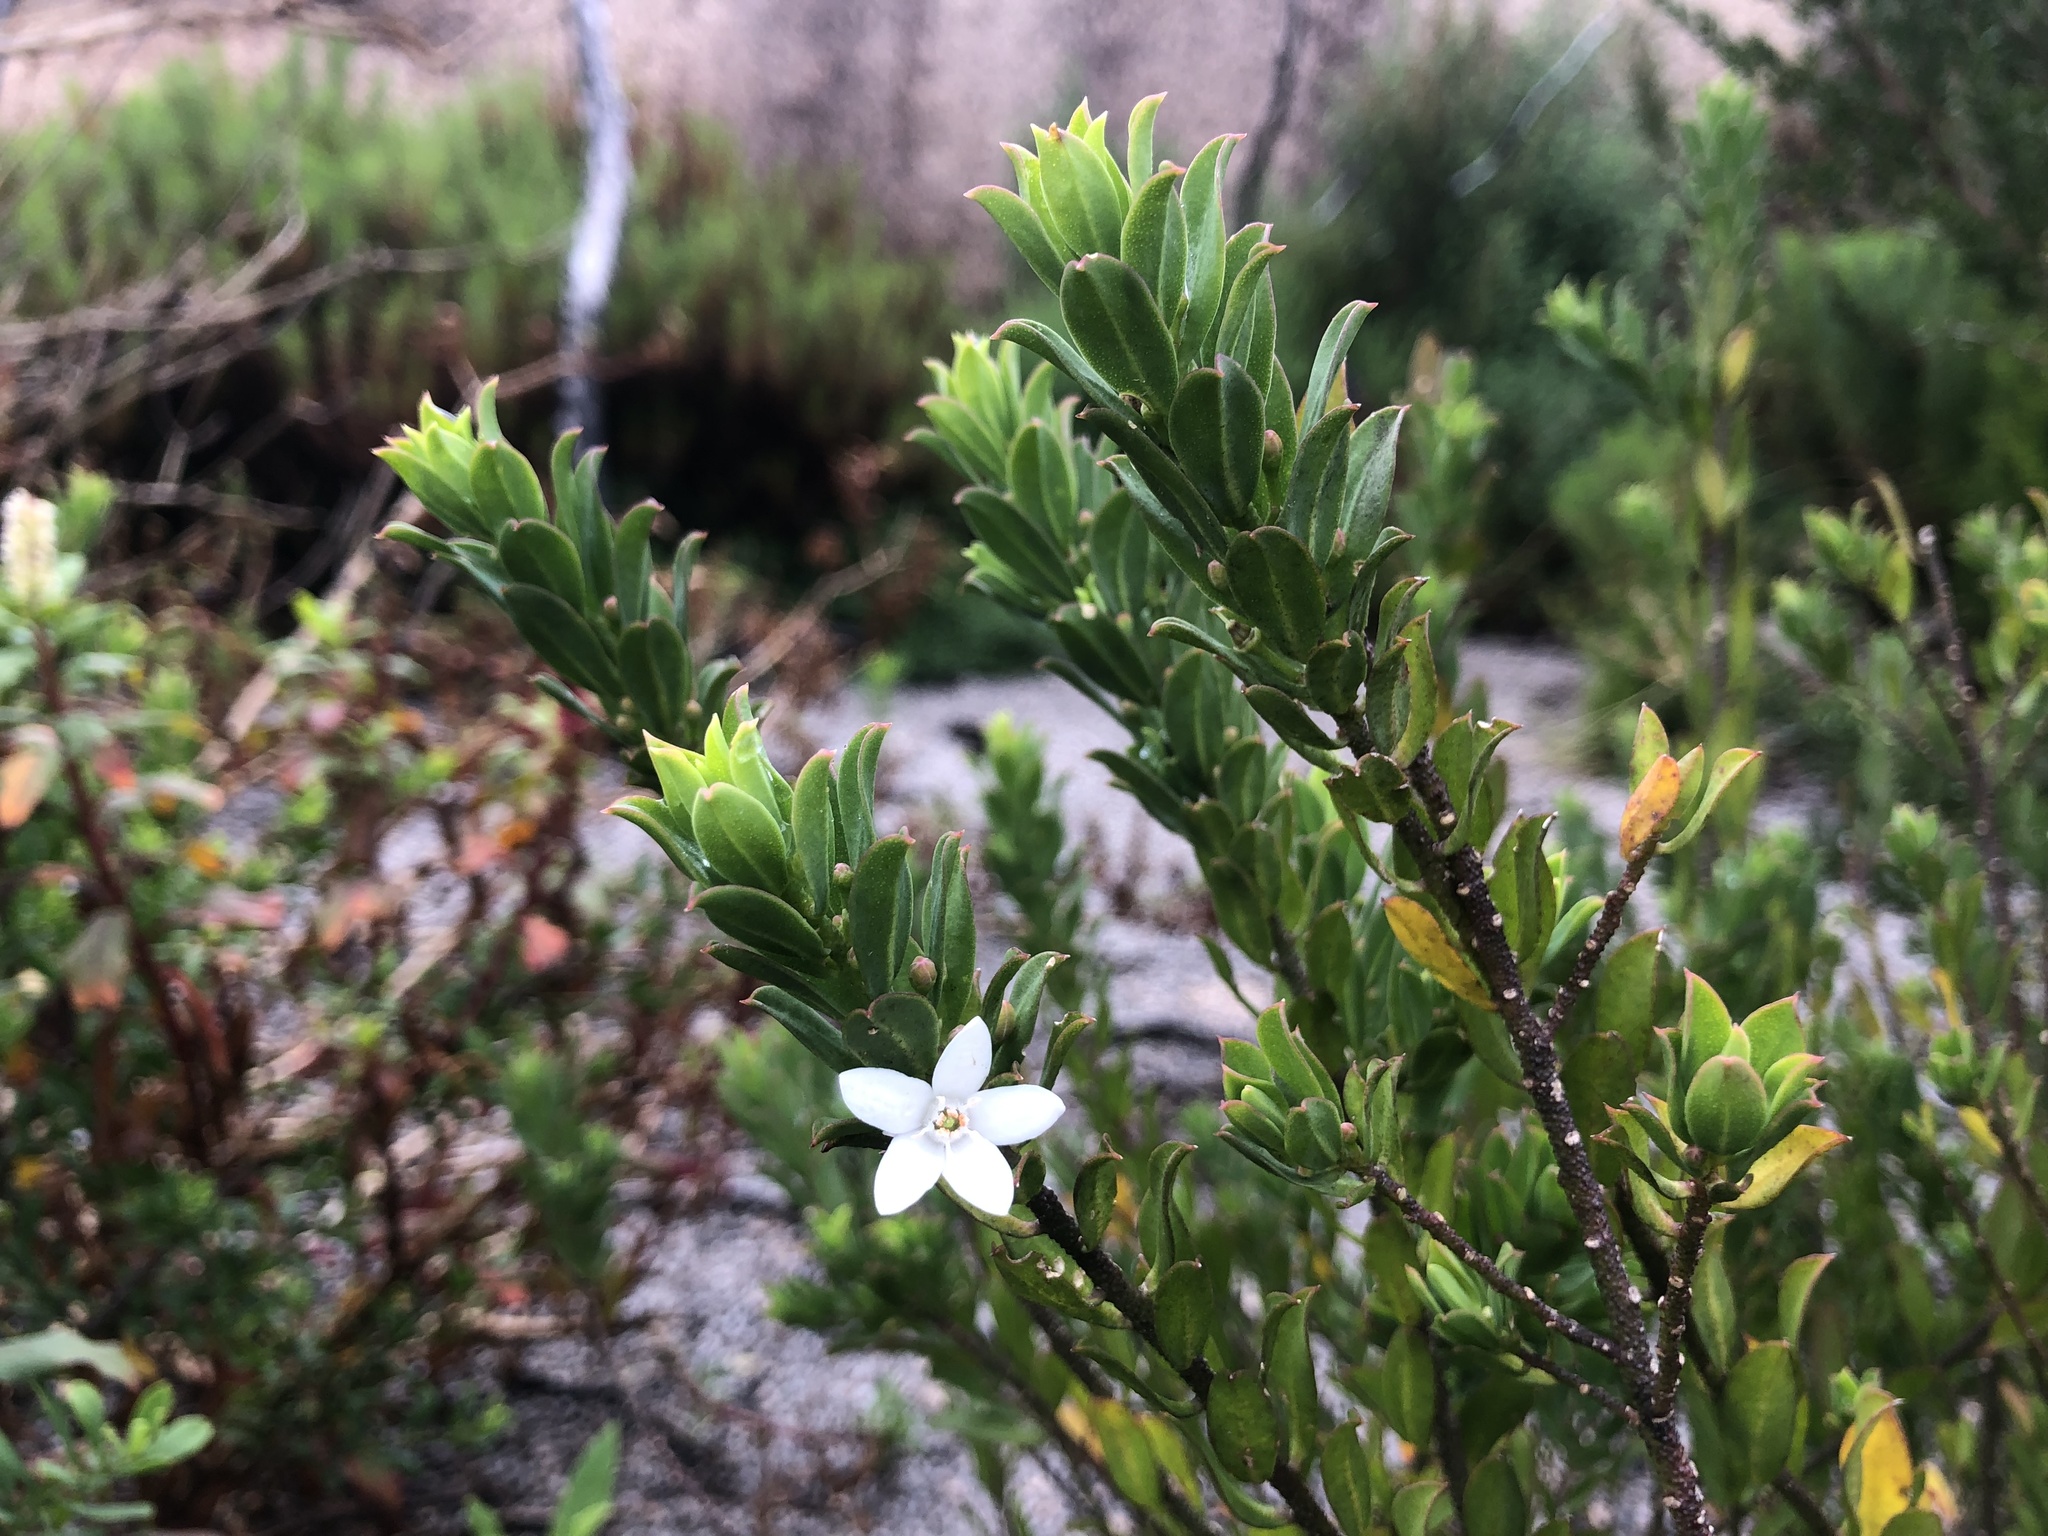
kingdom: Plantae
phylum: Tracheophyta
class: Magnoliopsida
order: Sapindales
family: Rutaceae
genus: Philotheca
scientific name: Philotheca epilosa
